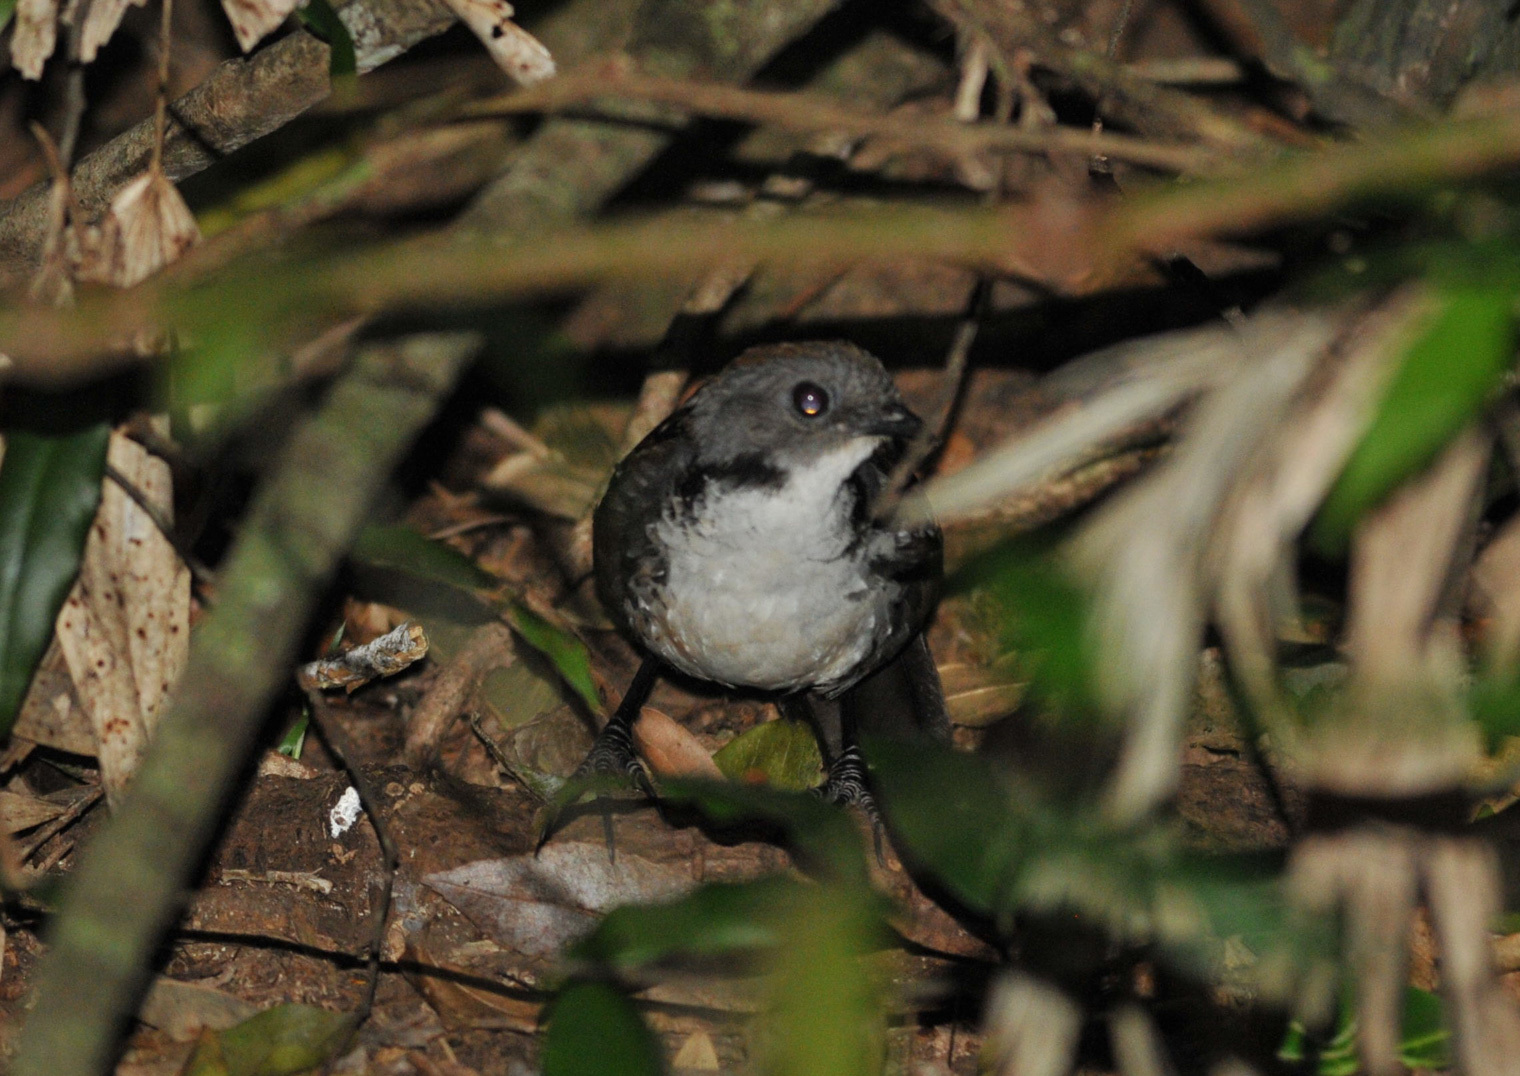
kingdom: Animalia
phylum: Chordata
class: Aves
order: Passeriformes
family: Orthonychidae
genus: Orthonyx
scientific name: Orthonyx temminckii
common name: Australian logrunner
